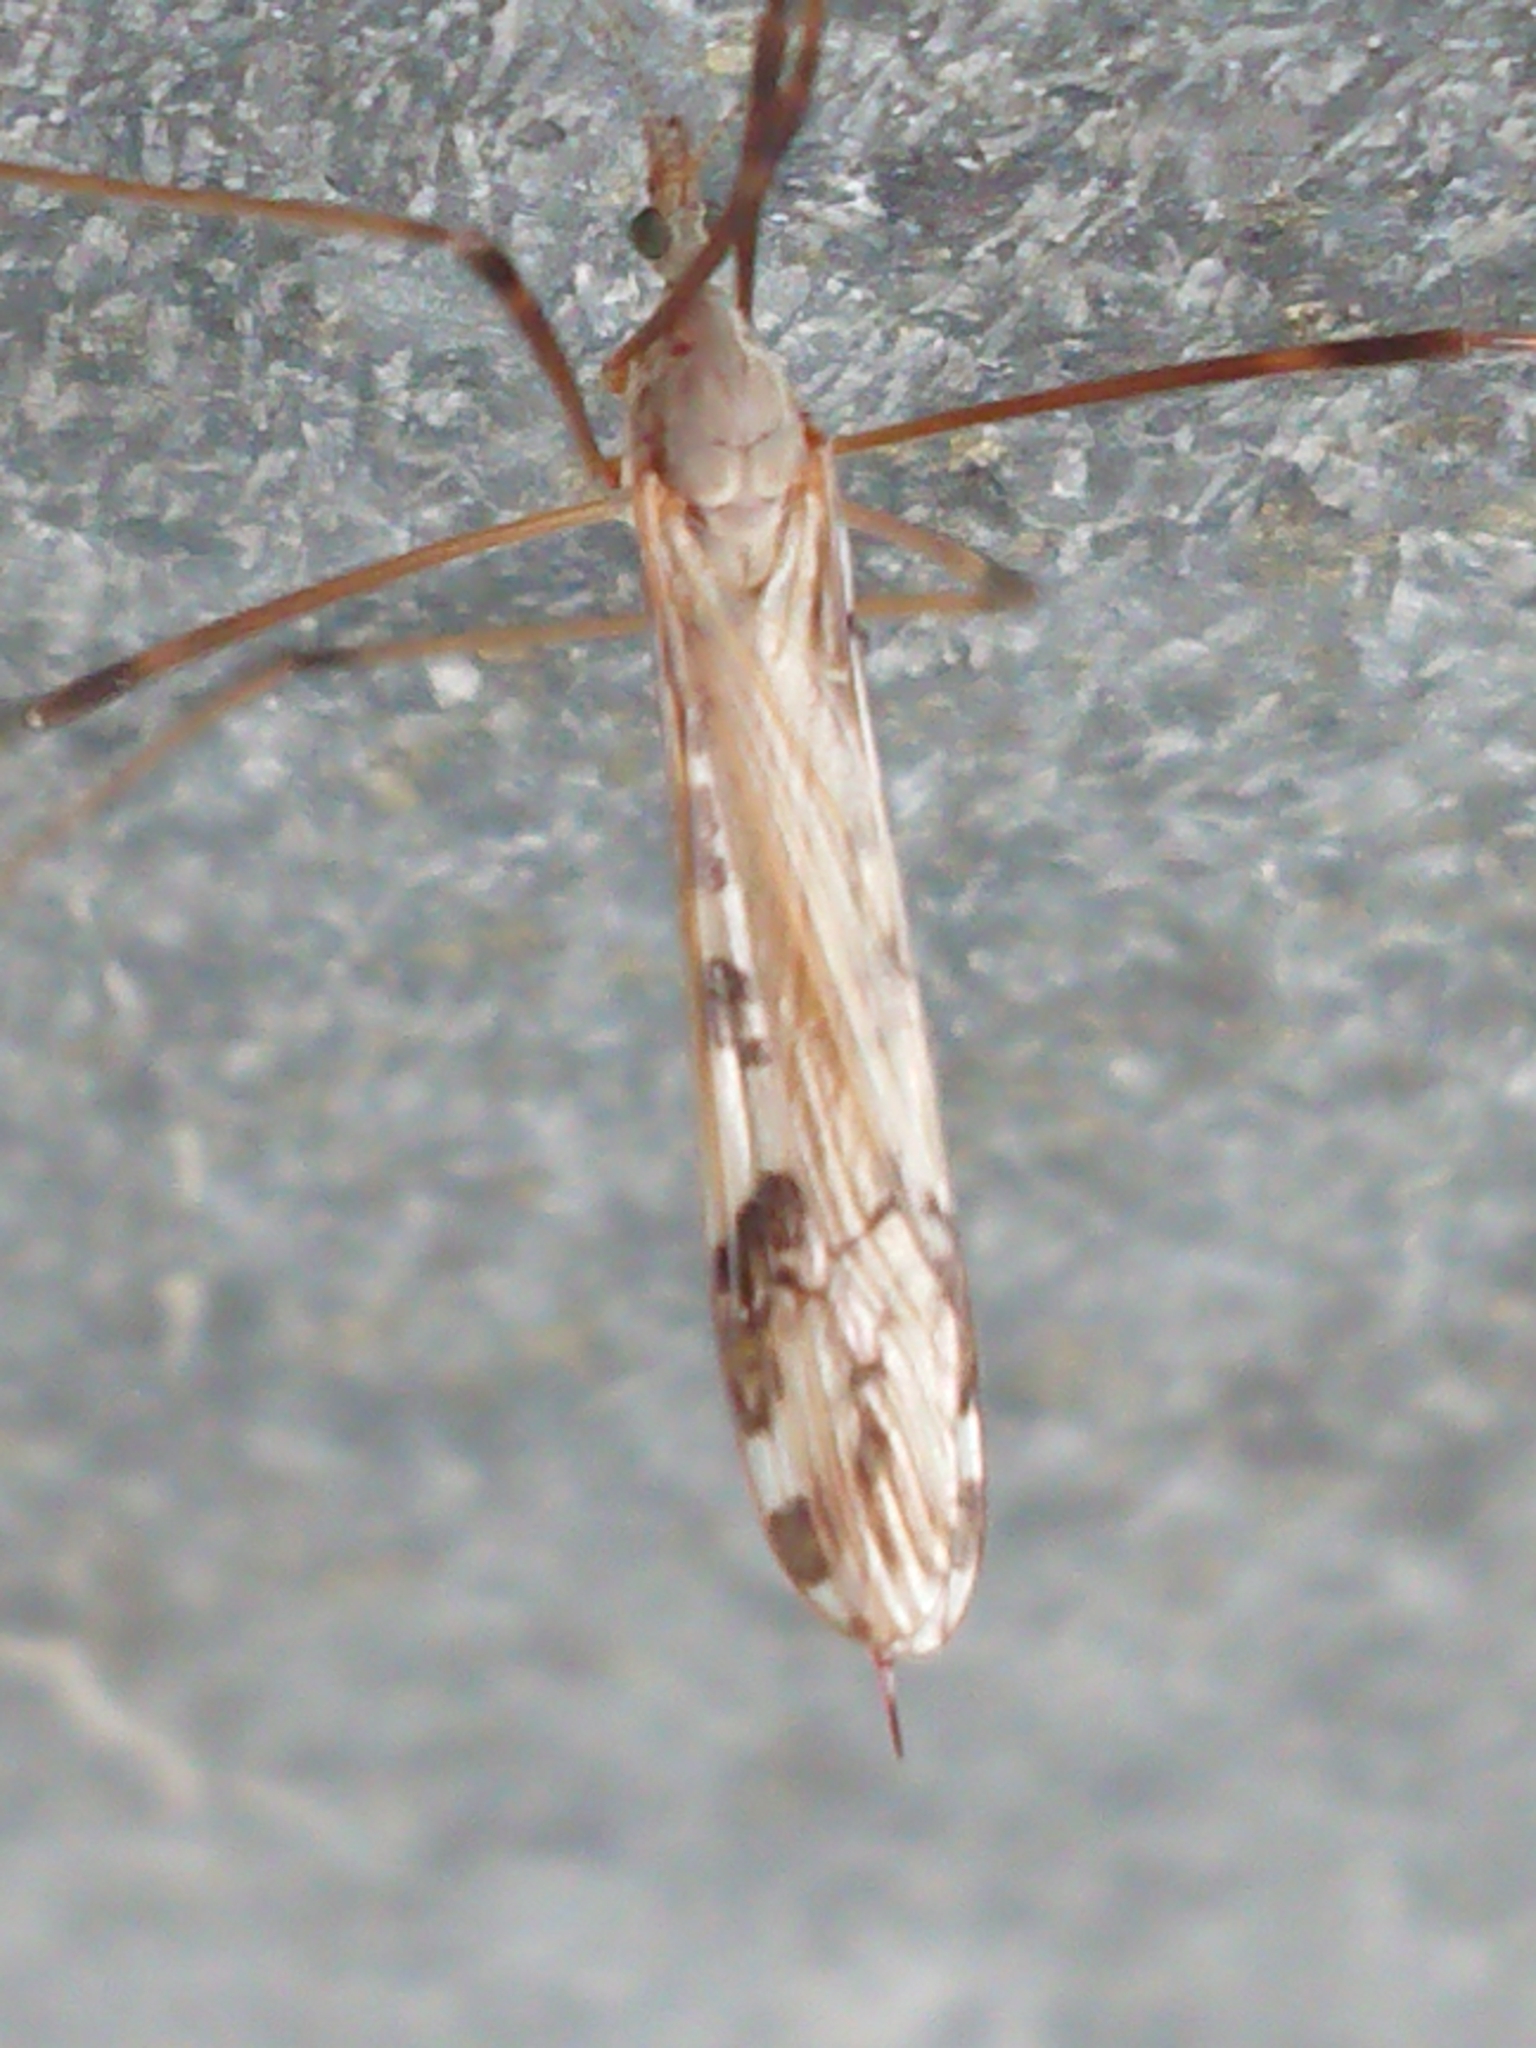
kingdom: Animalia
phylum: Arthropoda
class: Insecta
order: Diptera
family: Limoniidae
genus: Paralimnophila
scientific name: Paralimnophila skusei
